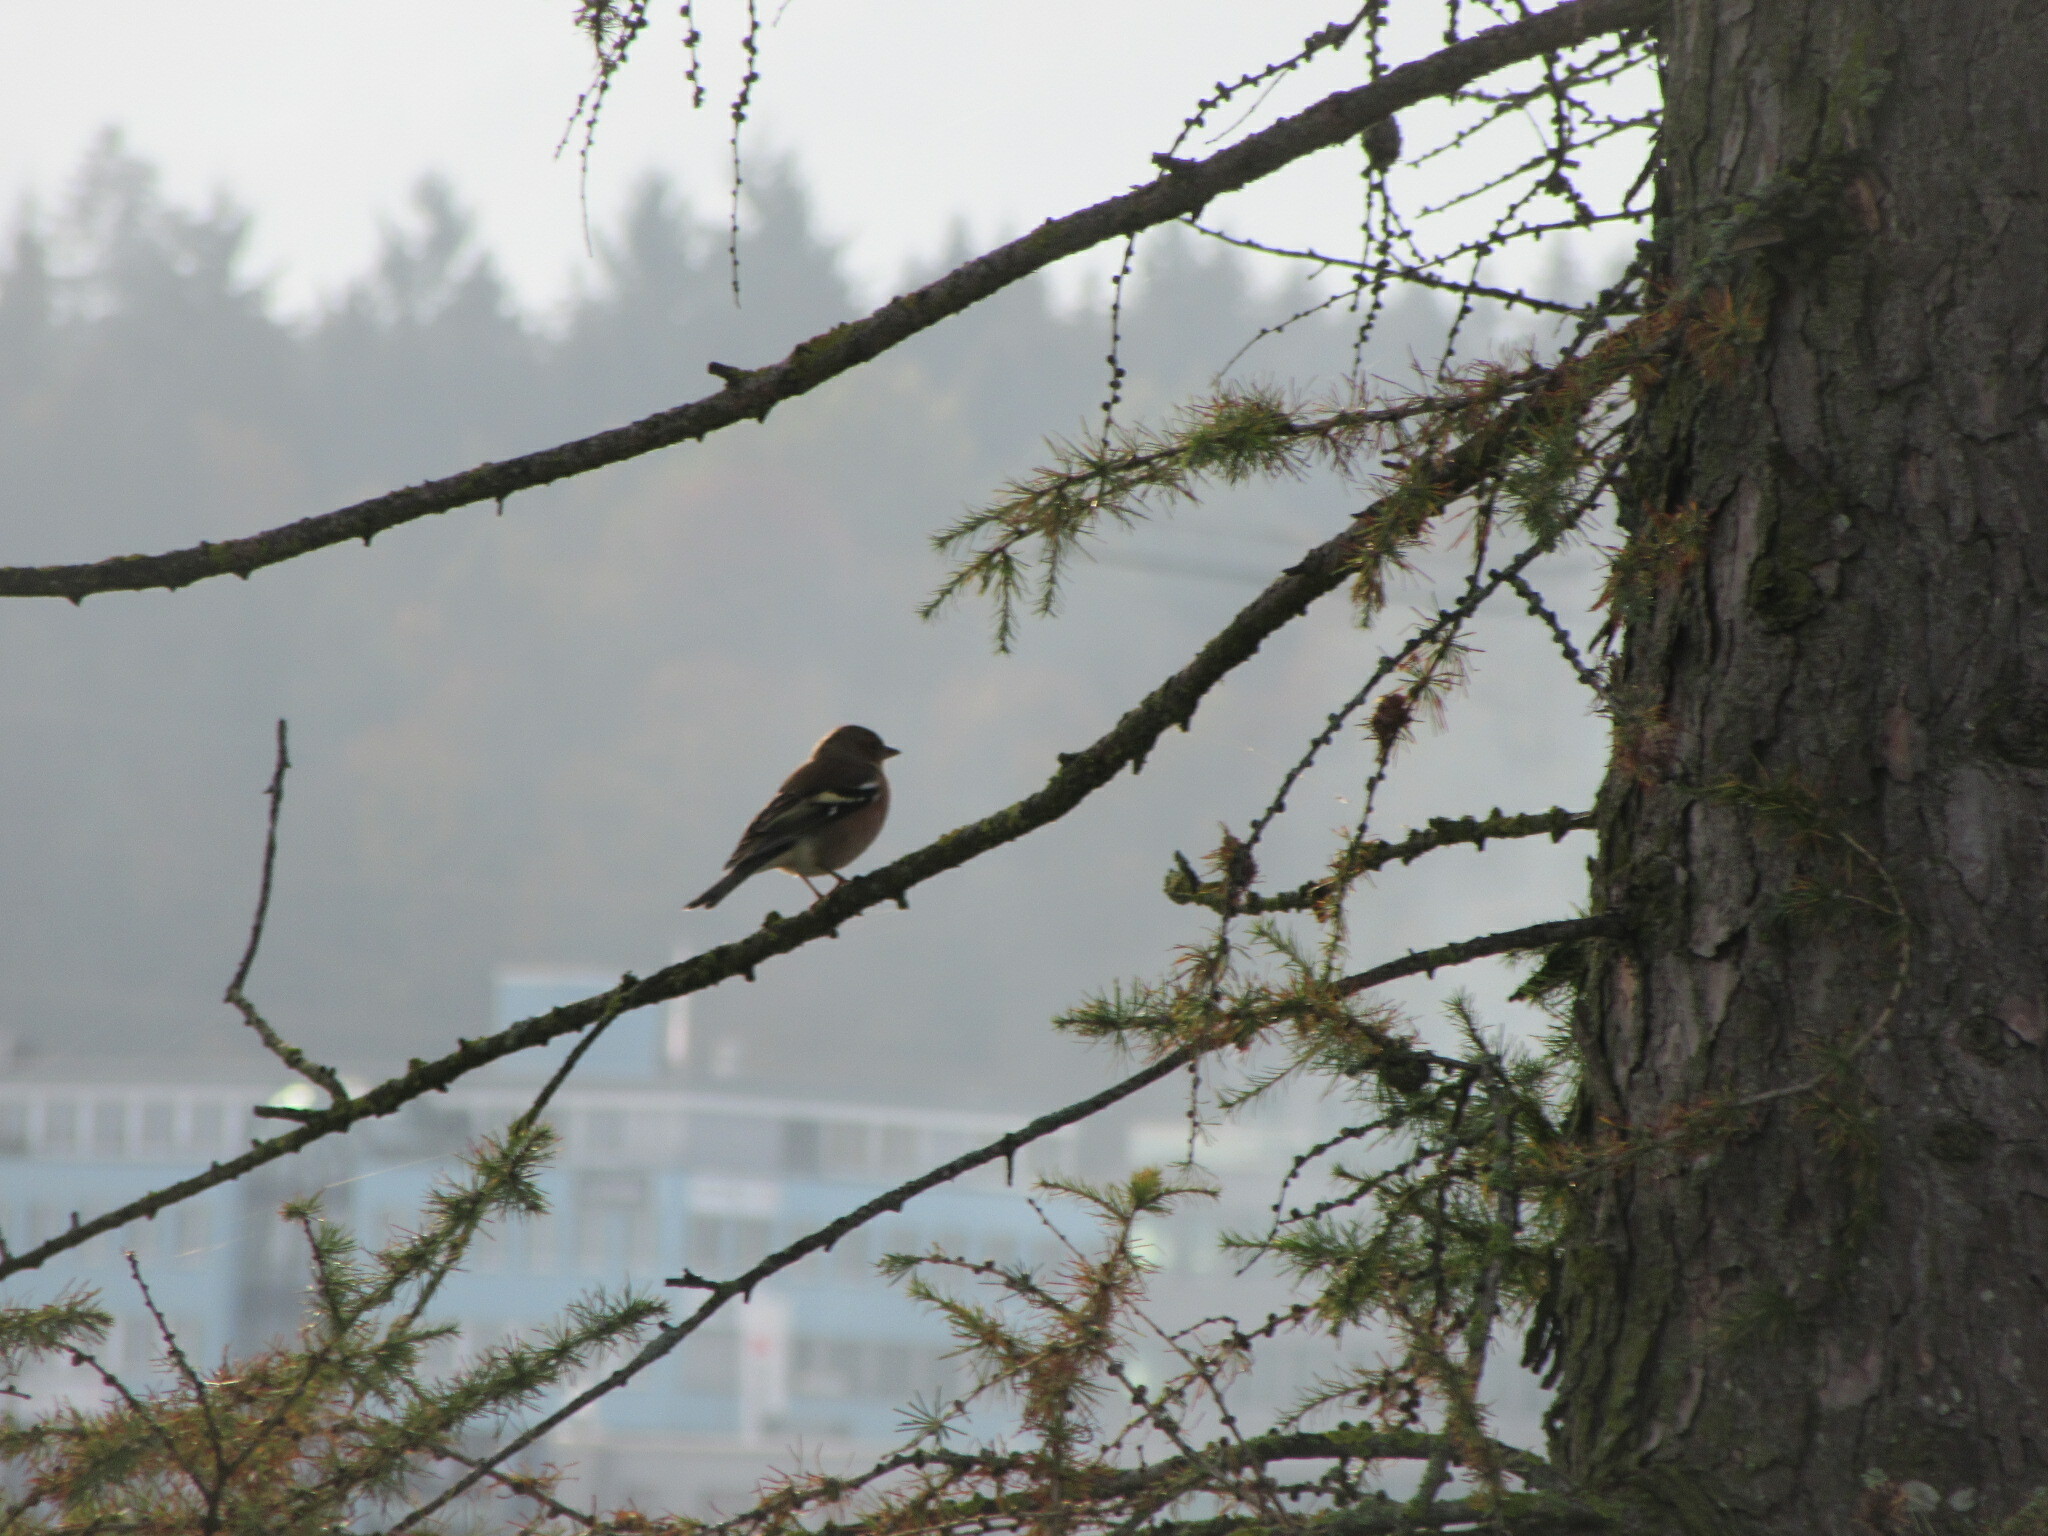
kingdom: Animalia
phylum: Chordata
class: Aves
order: Passeriformes
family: Fringillidae
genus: Fringilla
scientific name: Fringilla coelebs
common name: Common chaffinch
